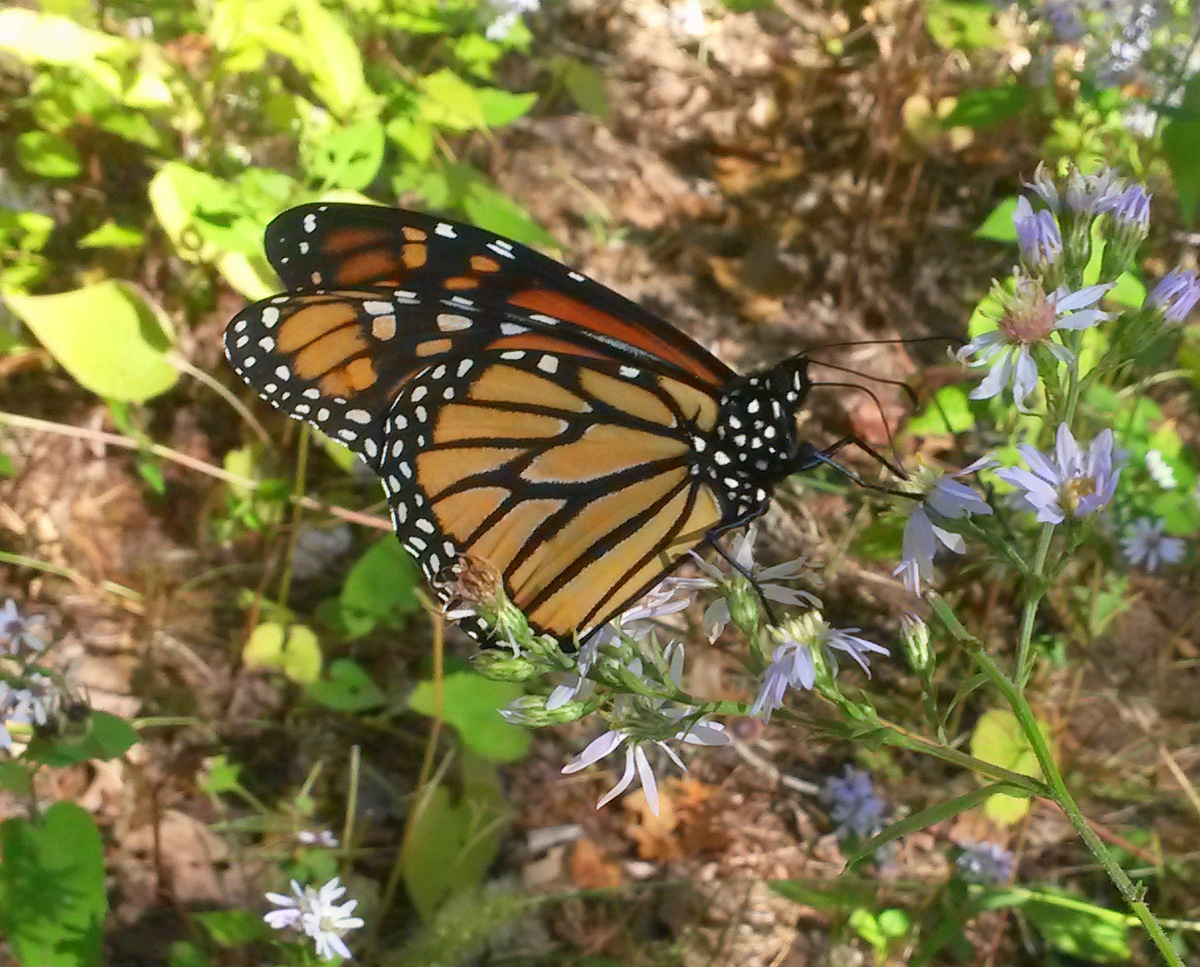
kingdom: Animalia
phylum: Arthropoda
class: Insecta
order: Lepidoptera
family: Nymphalidae
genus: Danaus
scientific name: Danaus plexippus
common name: Monarch
